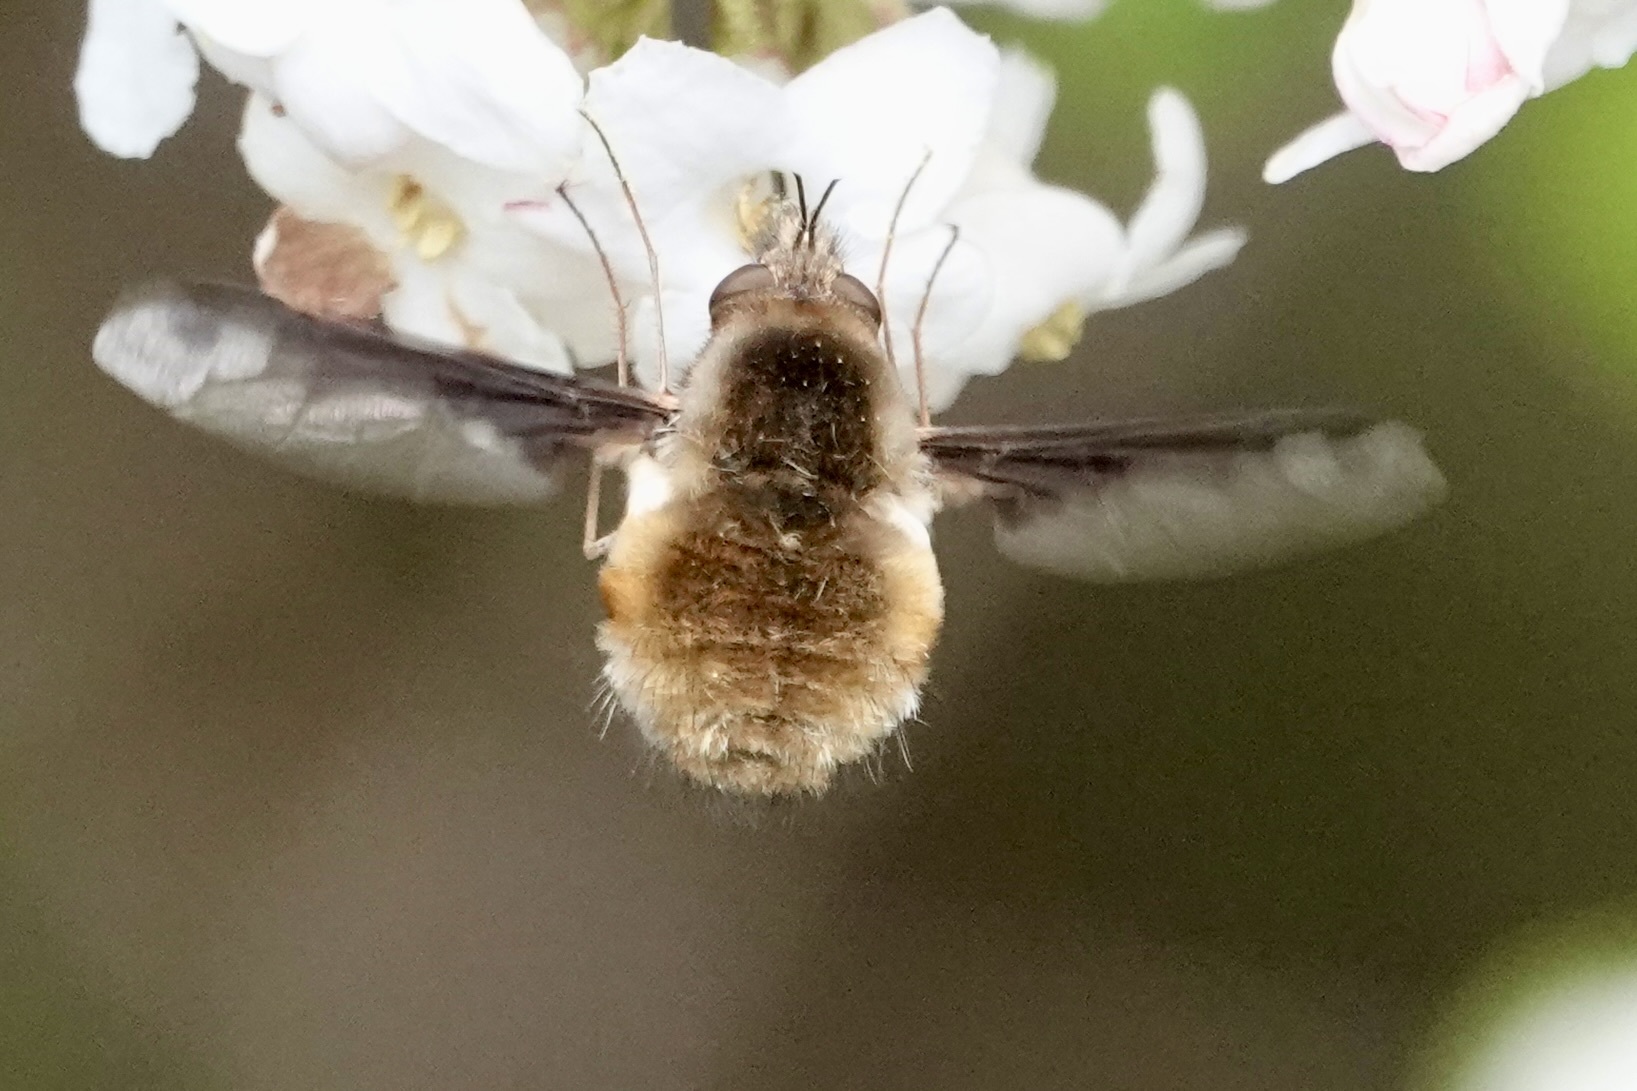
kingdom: Animalia
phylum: Arthropoda
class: Insecta
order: Diptera
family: Bombyliidae
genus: Bombylius
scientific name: Bombylius major
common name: Bee fly
